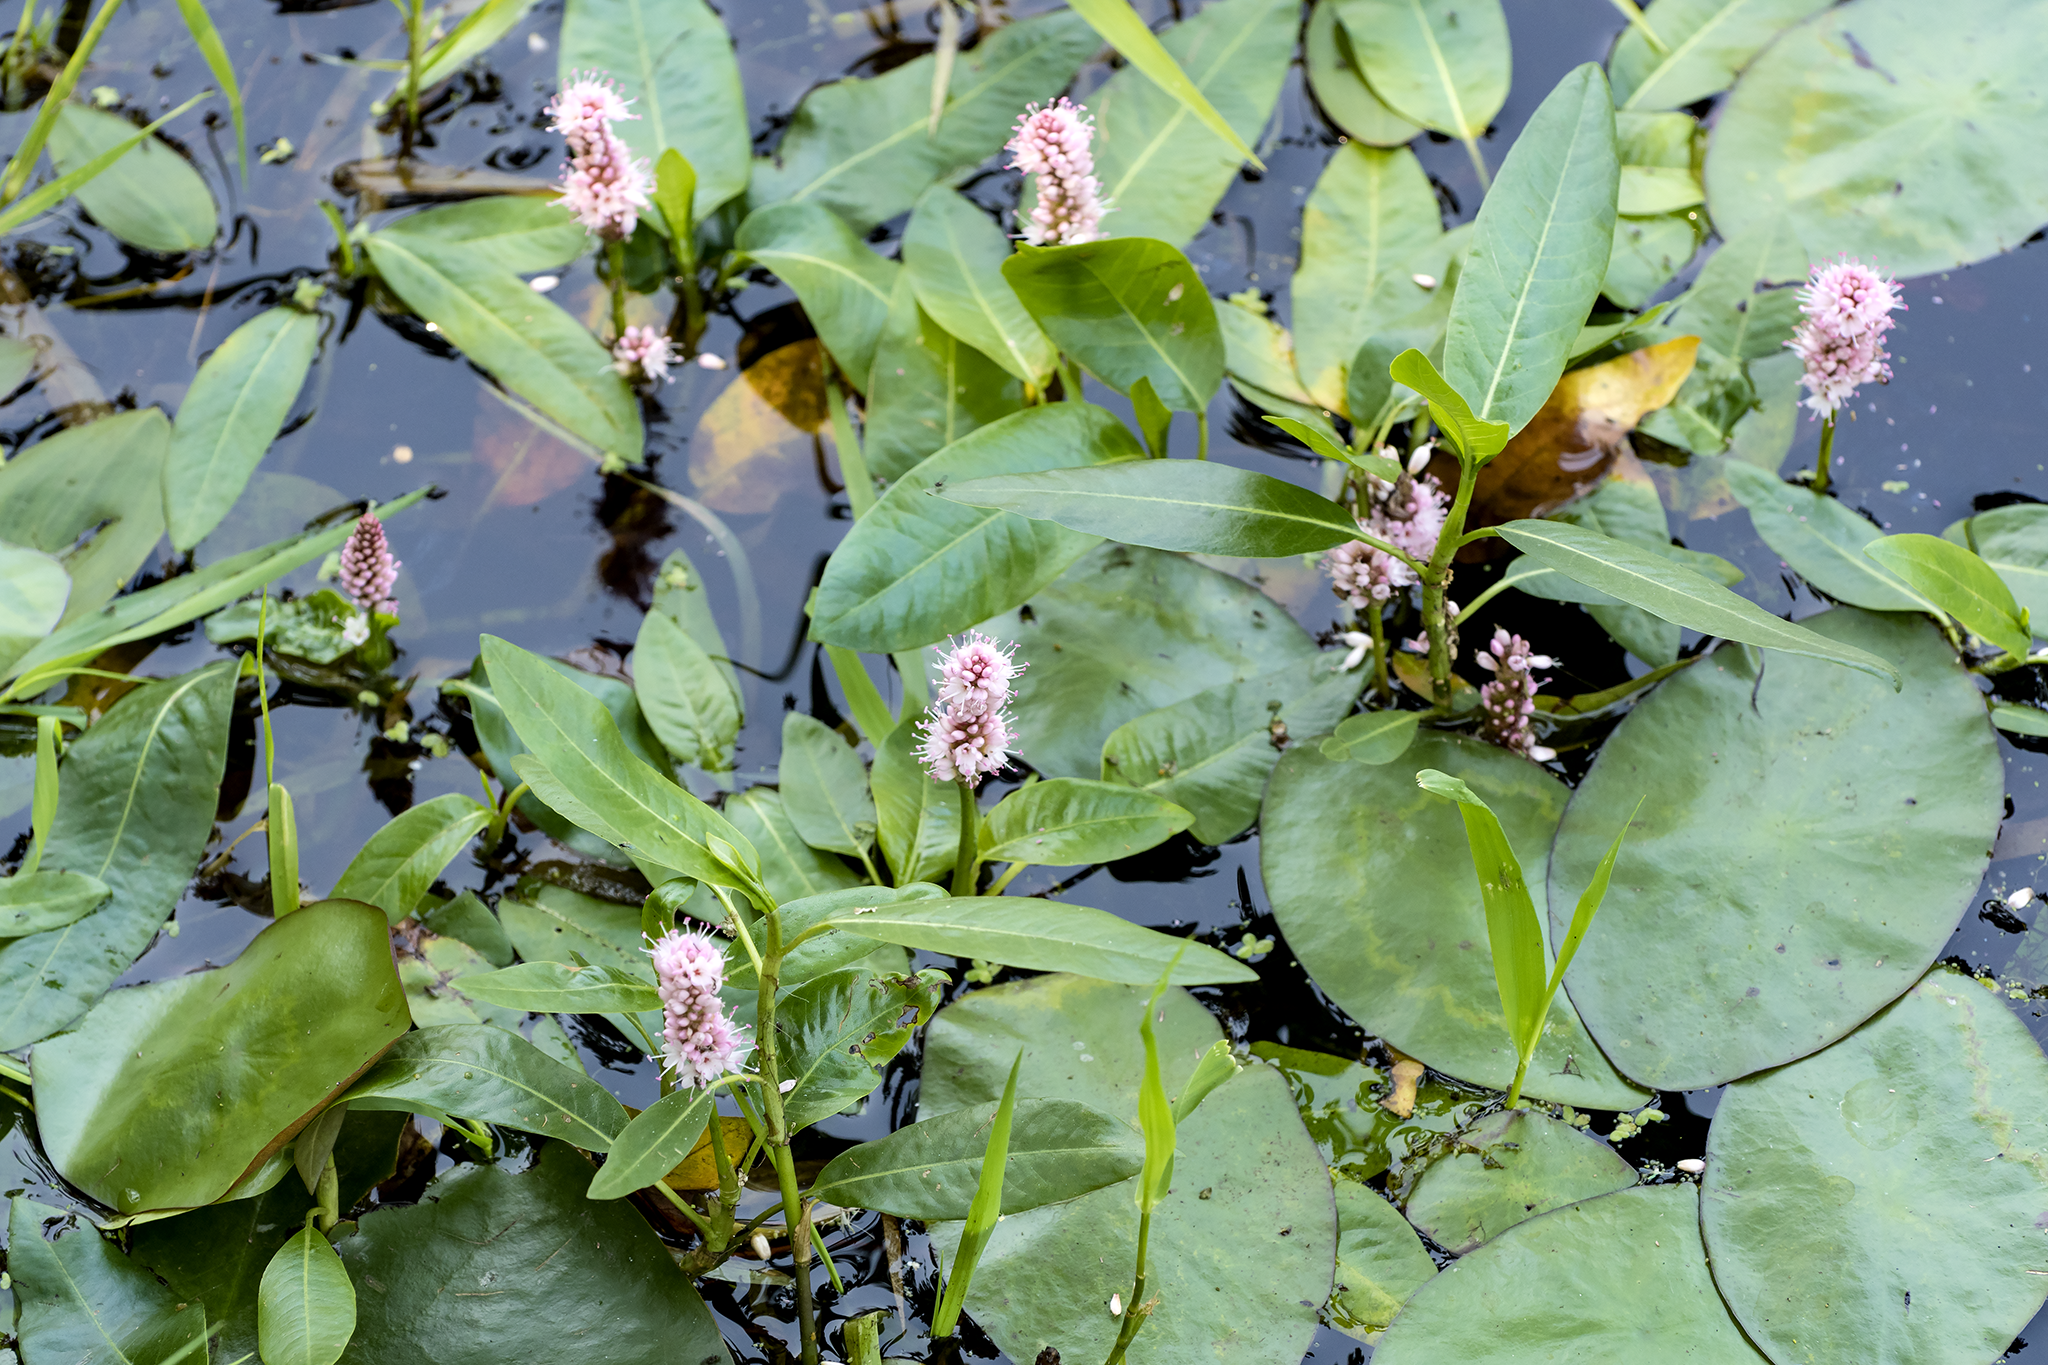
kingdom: Plantae
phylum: Tracheophyta
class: Magnoliopsida
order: Caryophyllales
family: Polygonaceae
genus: Persicaria
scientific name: Persicaria amphibia
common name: Amphibious bistort
